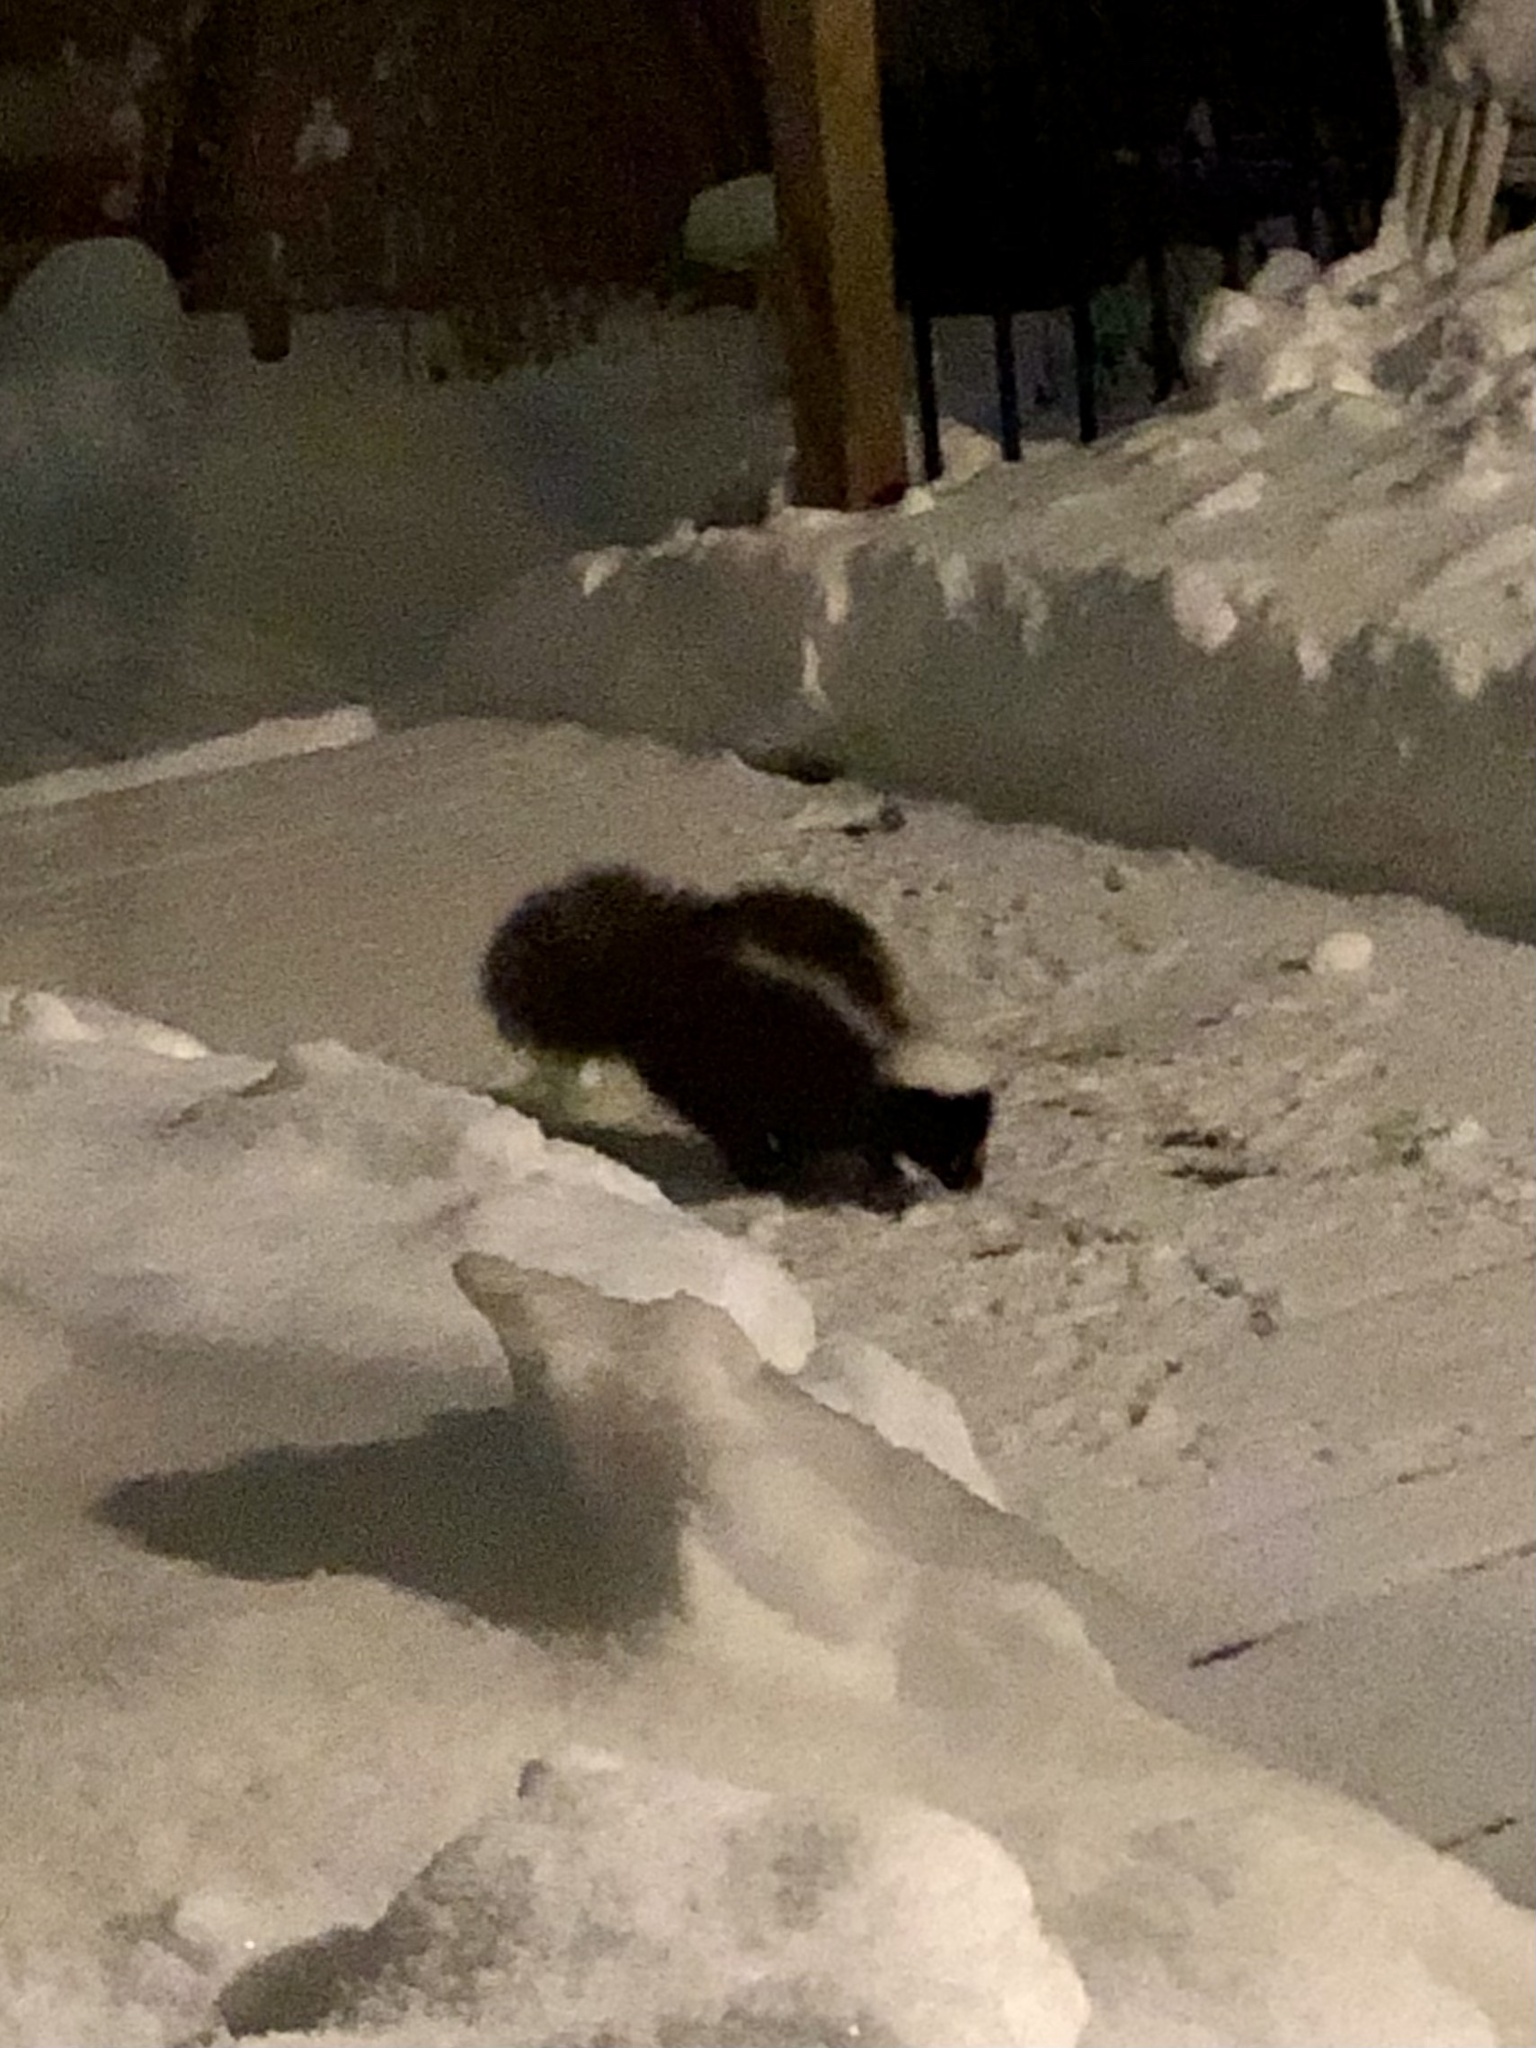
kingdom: Animalia
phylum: Chordata
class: Mammalia
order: Carnivora
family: Mephitidae
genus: Mephitis
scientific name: Mephitis mephitis
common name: Striped skunk
